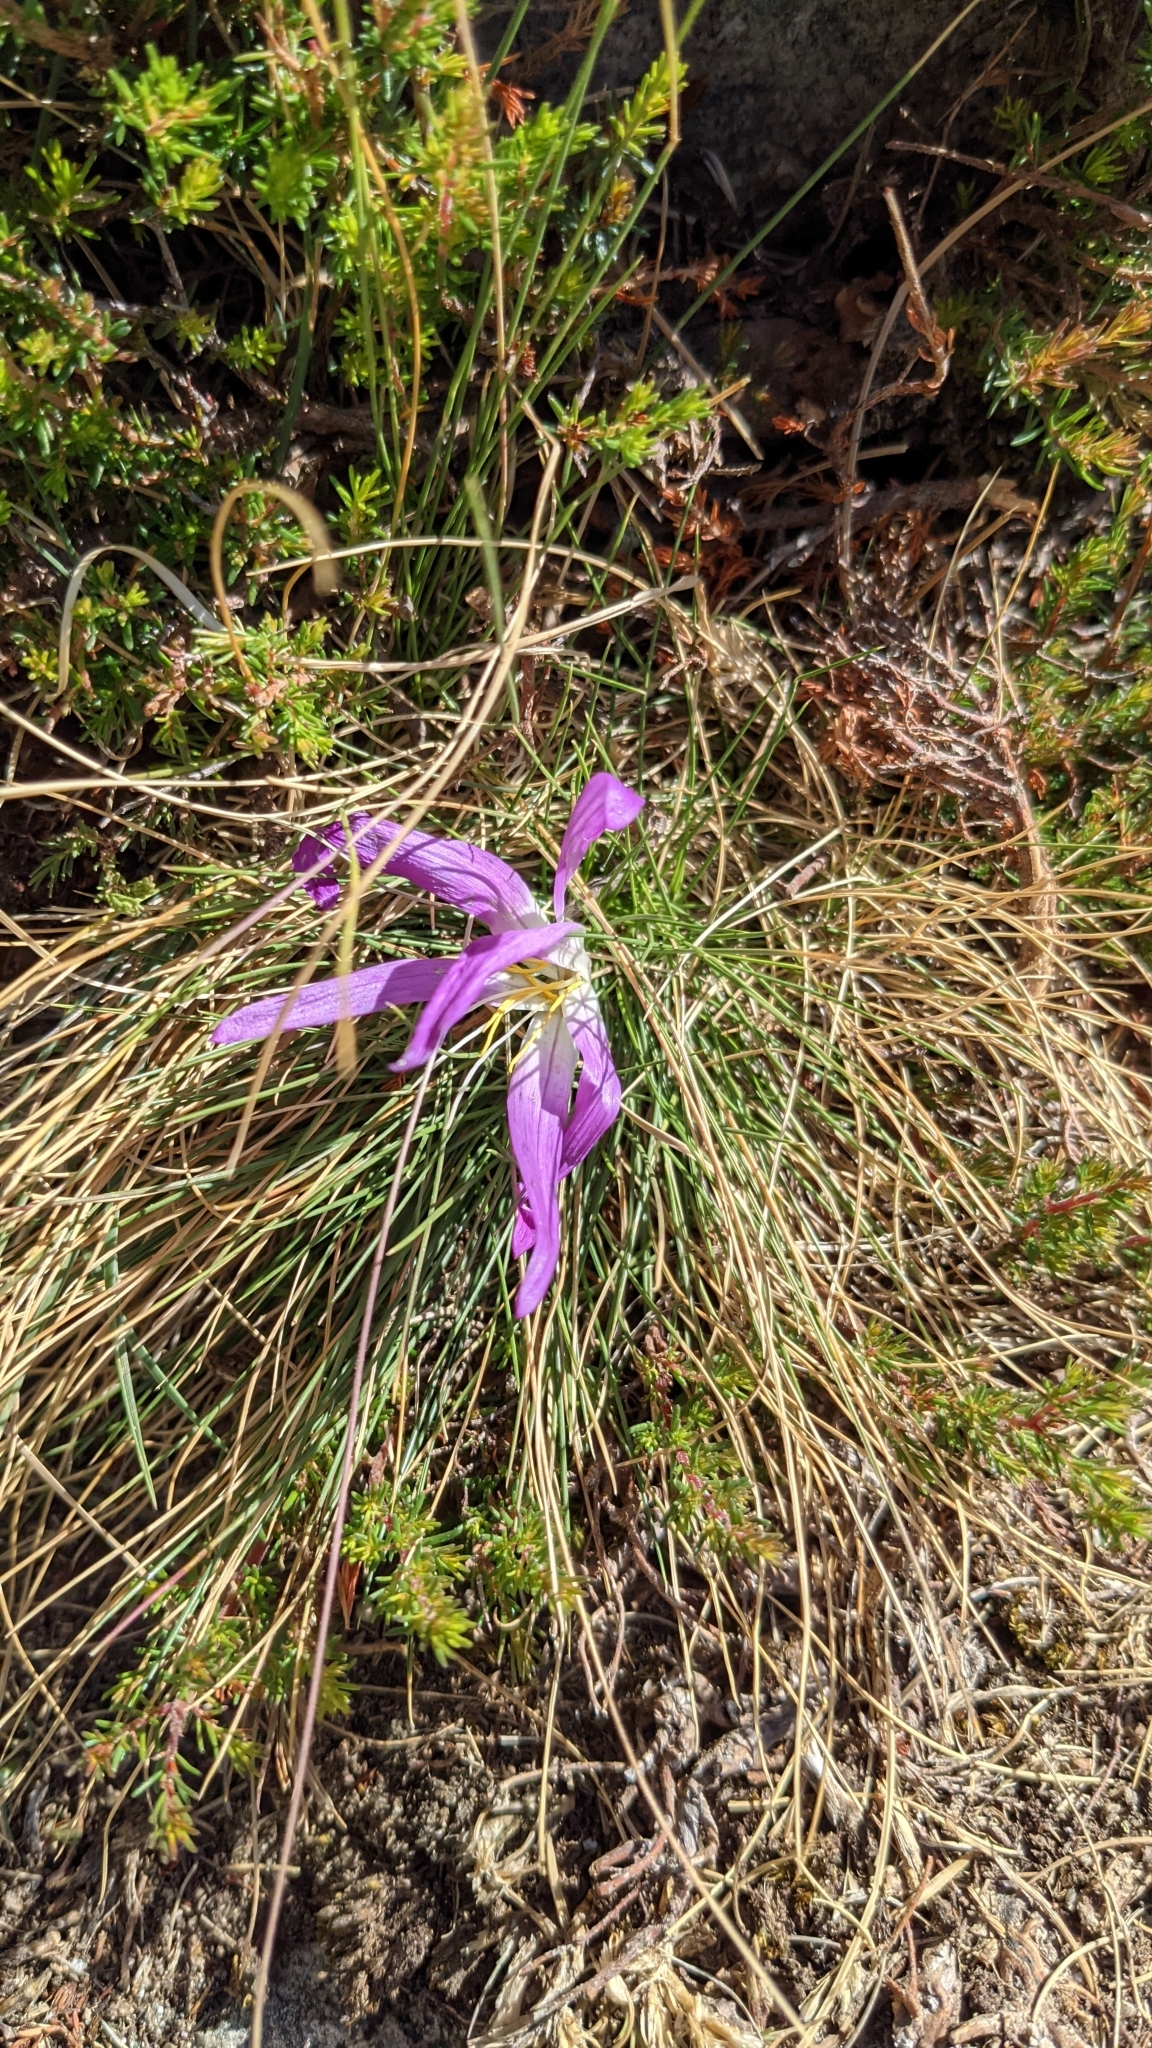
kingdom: Plantae
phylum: Tracheophyta
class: Liliopsida
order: Liliales
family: Colchicaceae
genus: Colchicum
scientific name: Colchicum montanum
